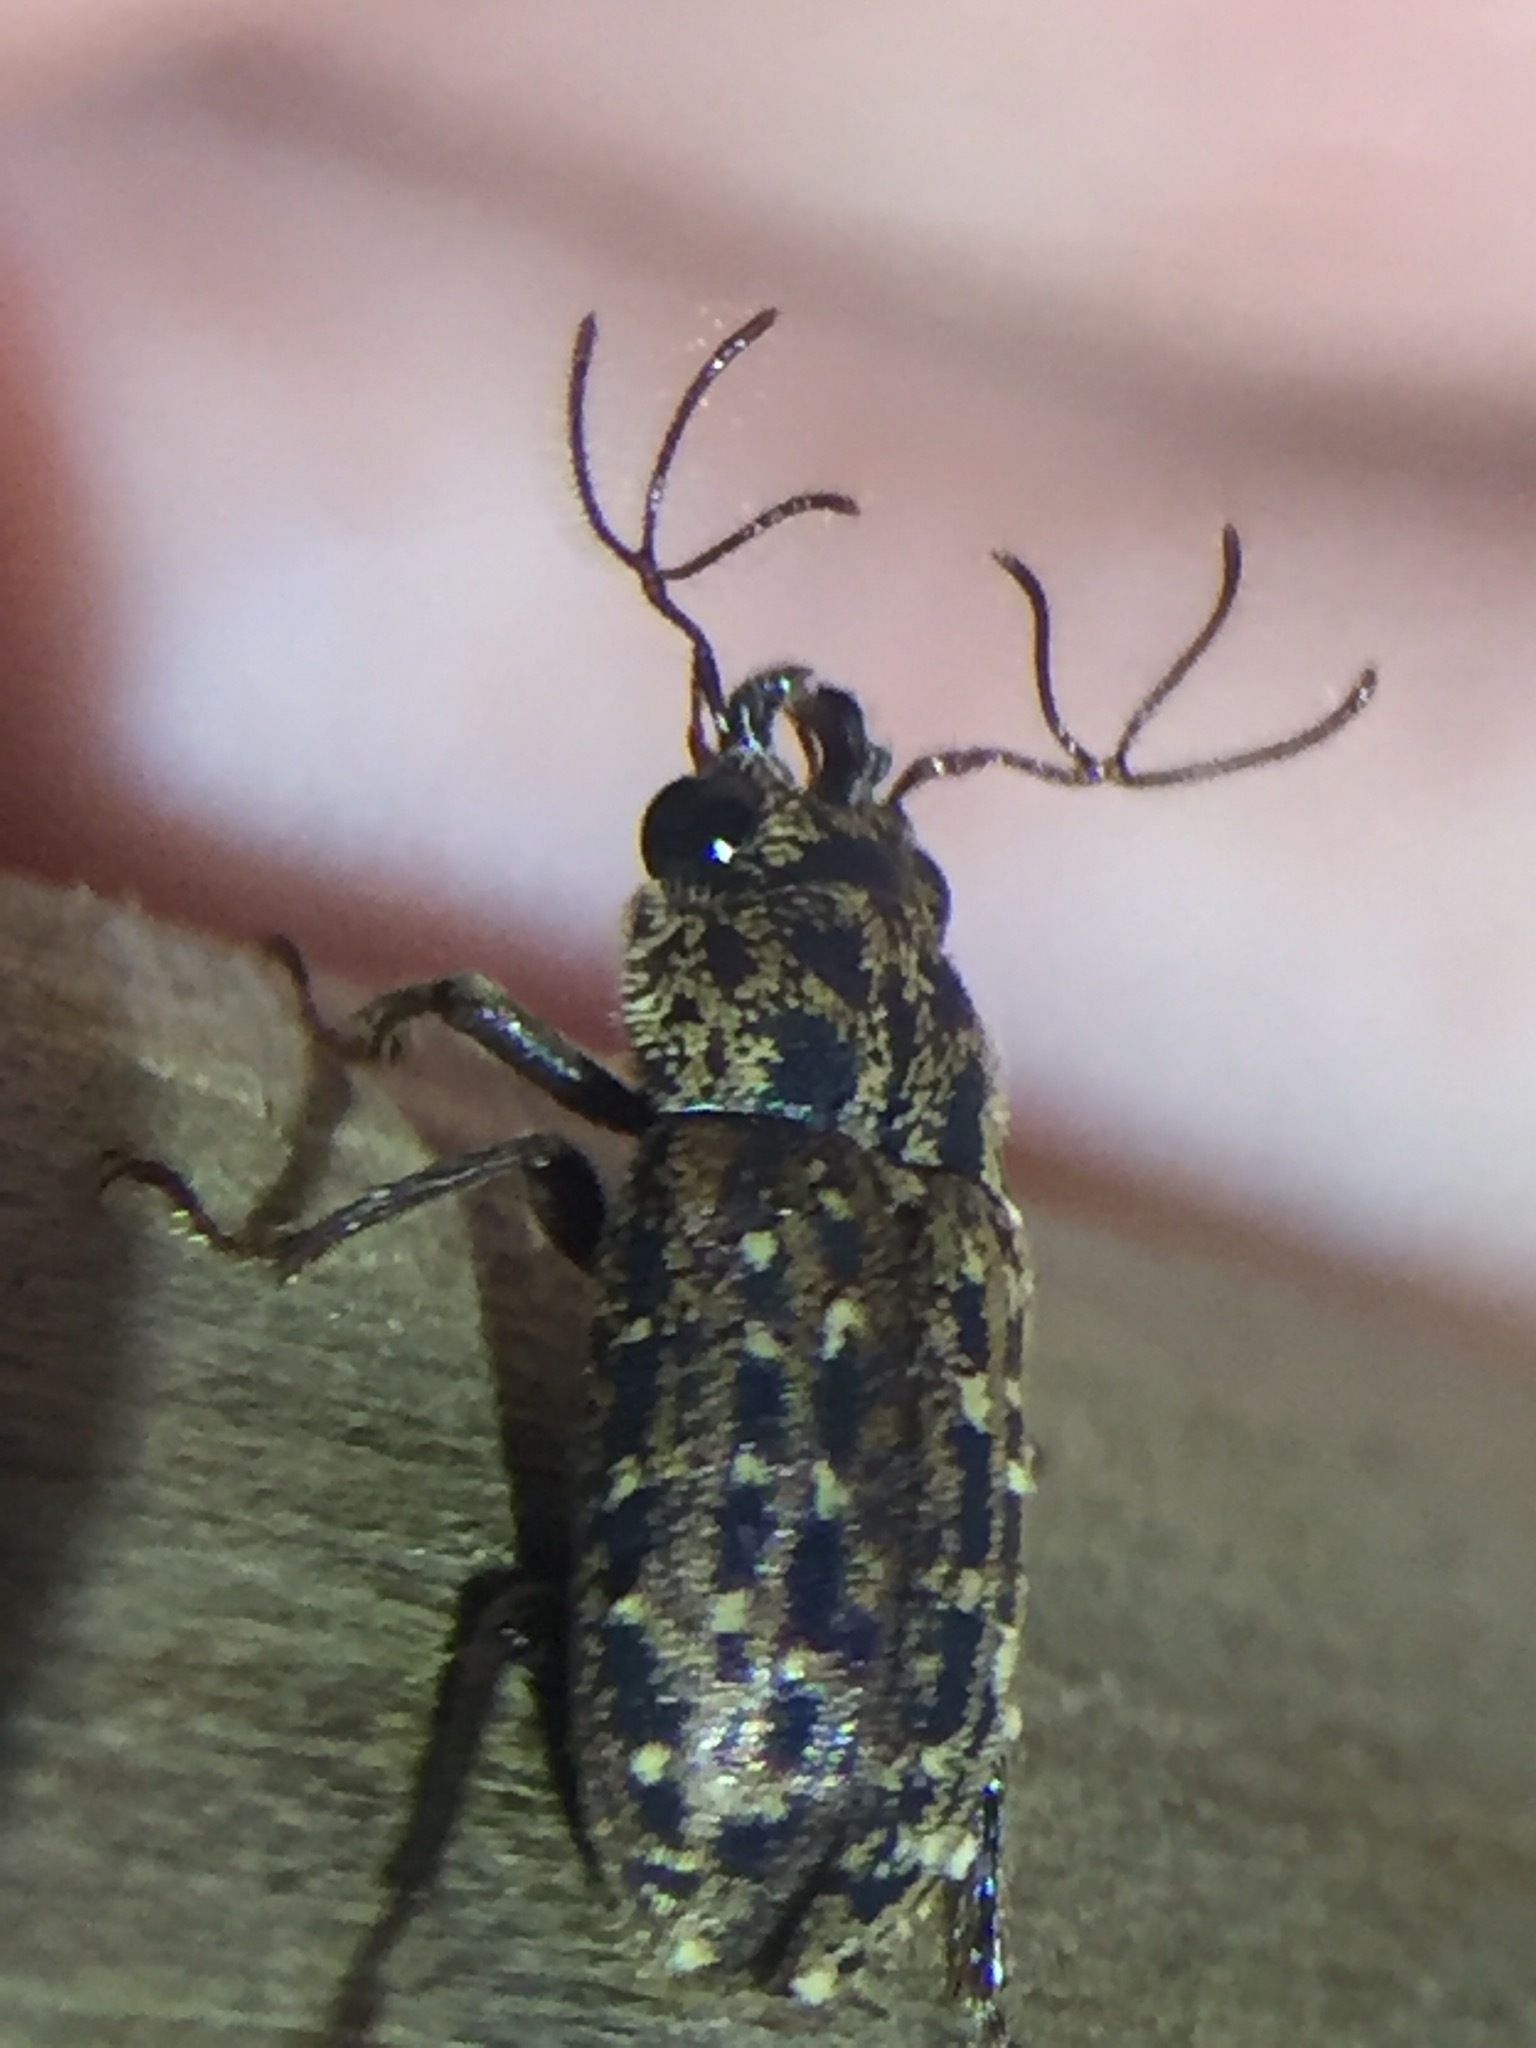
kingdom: Animalia
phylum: Arthropoda
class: Insecta
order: Coleoptera
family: Lucanidae
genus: Mitophyllus
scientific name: Mitophyllus arcuatus
